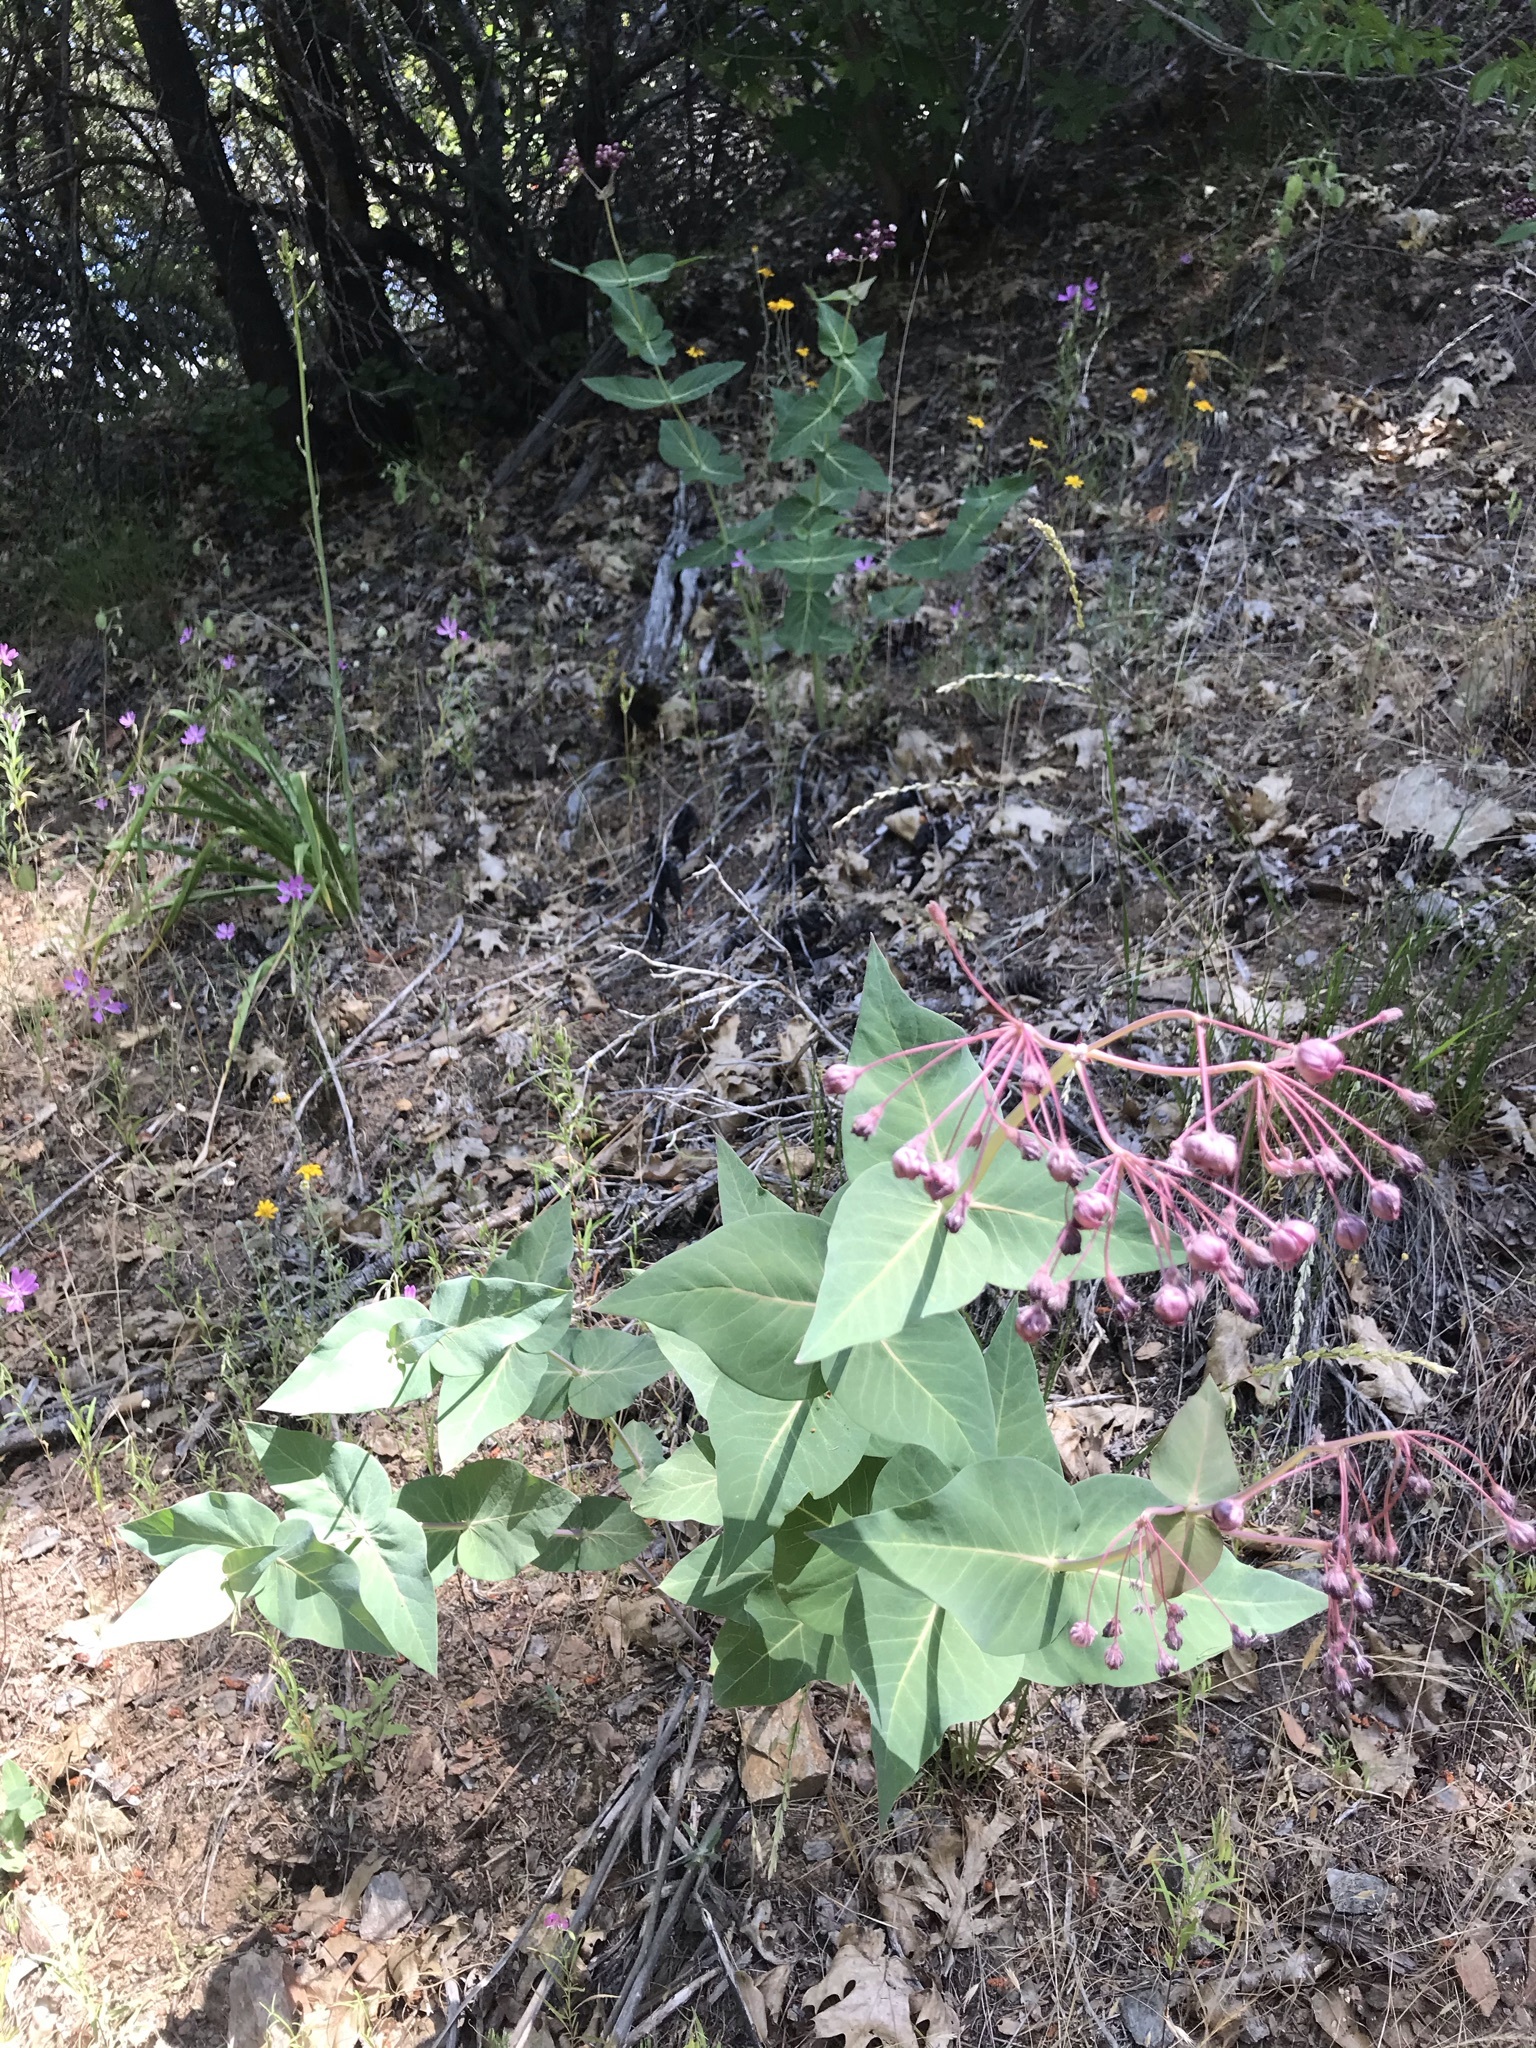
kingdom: Plantae
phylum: Tracheophyta
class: Magnoliopsida
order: Gentianales
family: Apocynaceae
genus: Asclepias
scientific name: Asclepias cordifolia
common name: Purple milkweed
